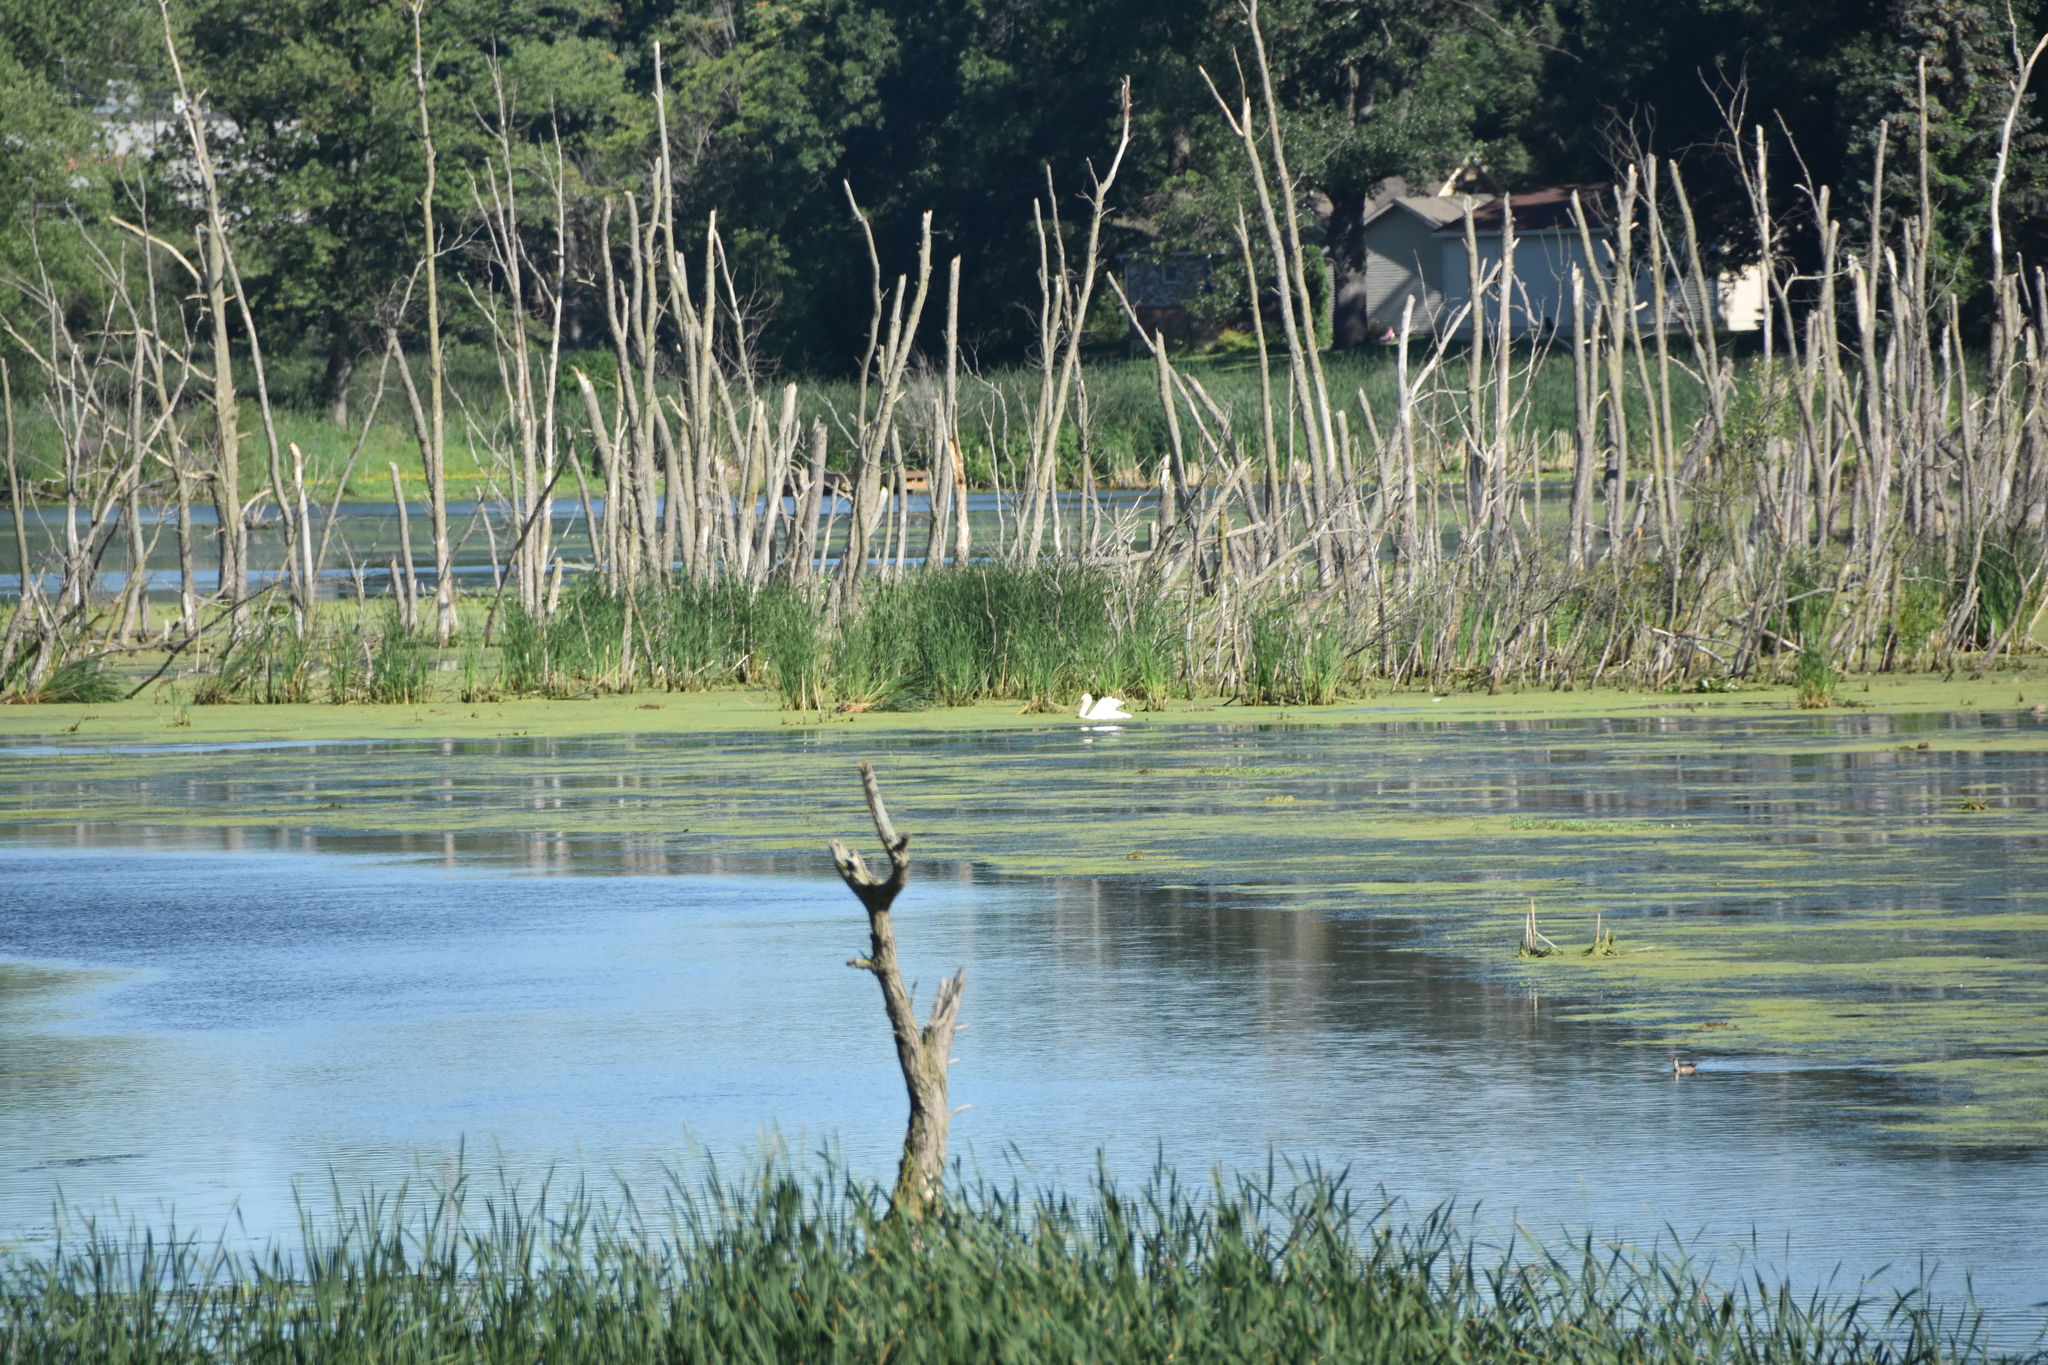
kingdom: Animalia
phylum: Chordata
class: Aves
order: Anseriformes
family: Anatidae
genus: Cygnus
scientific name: Cygnus olor
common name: Mute swan
